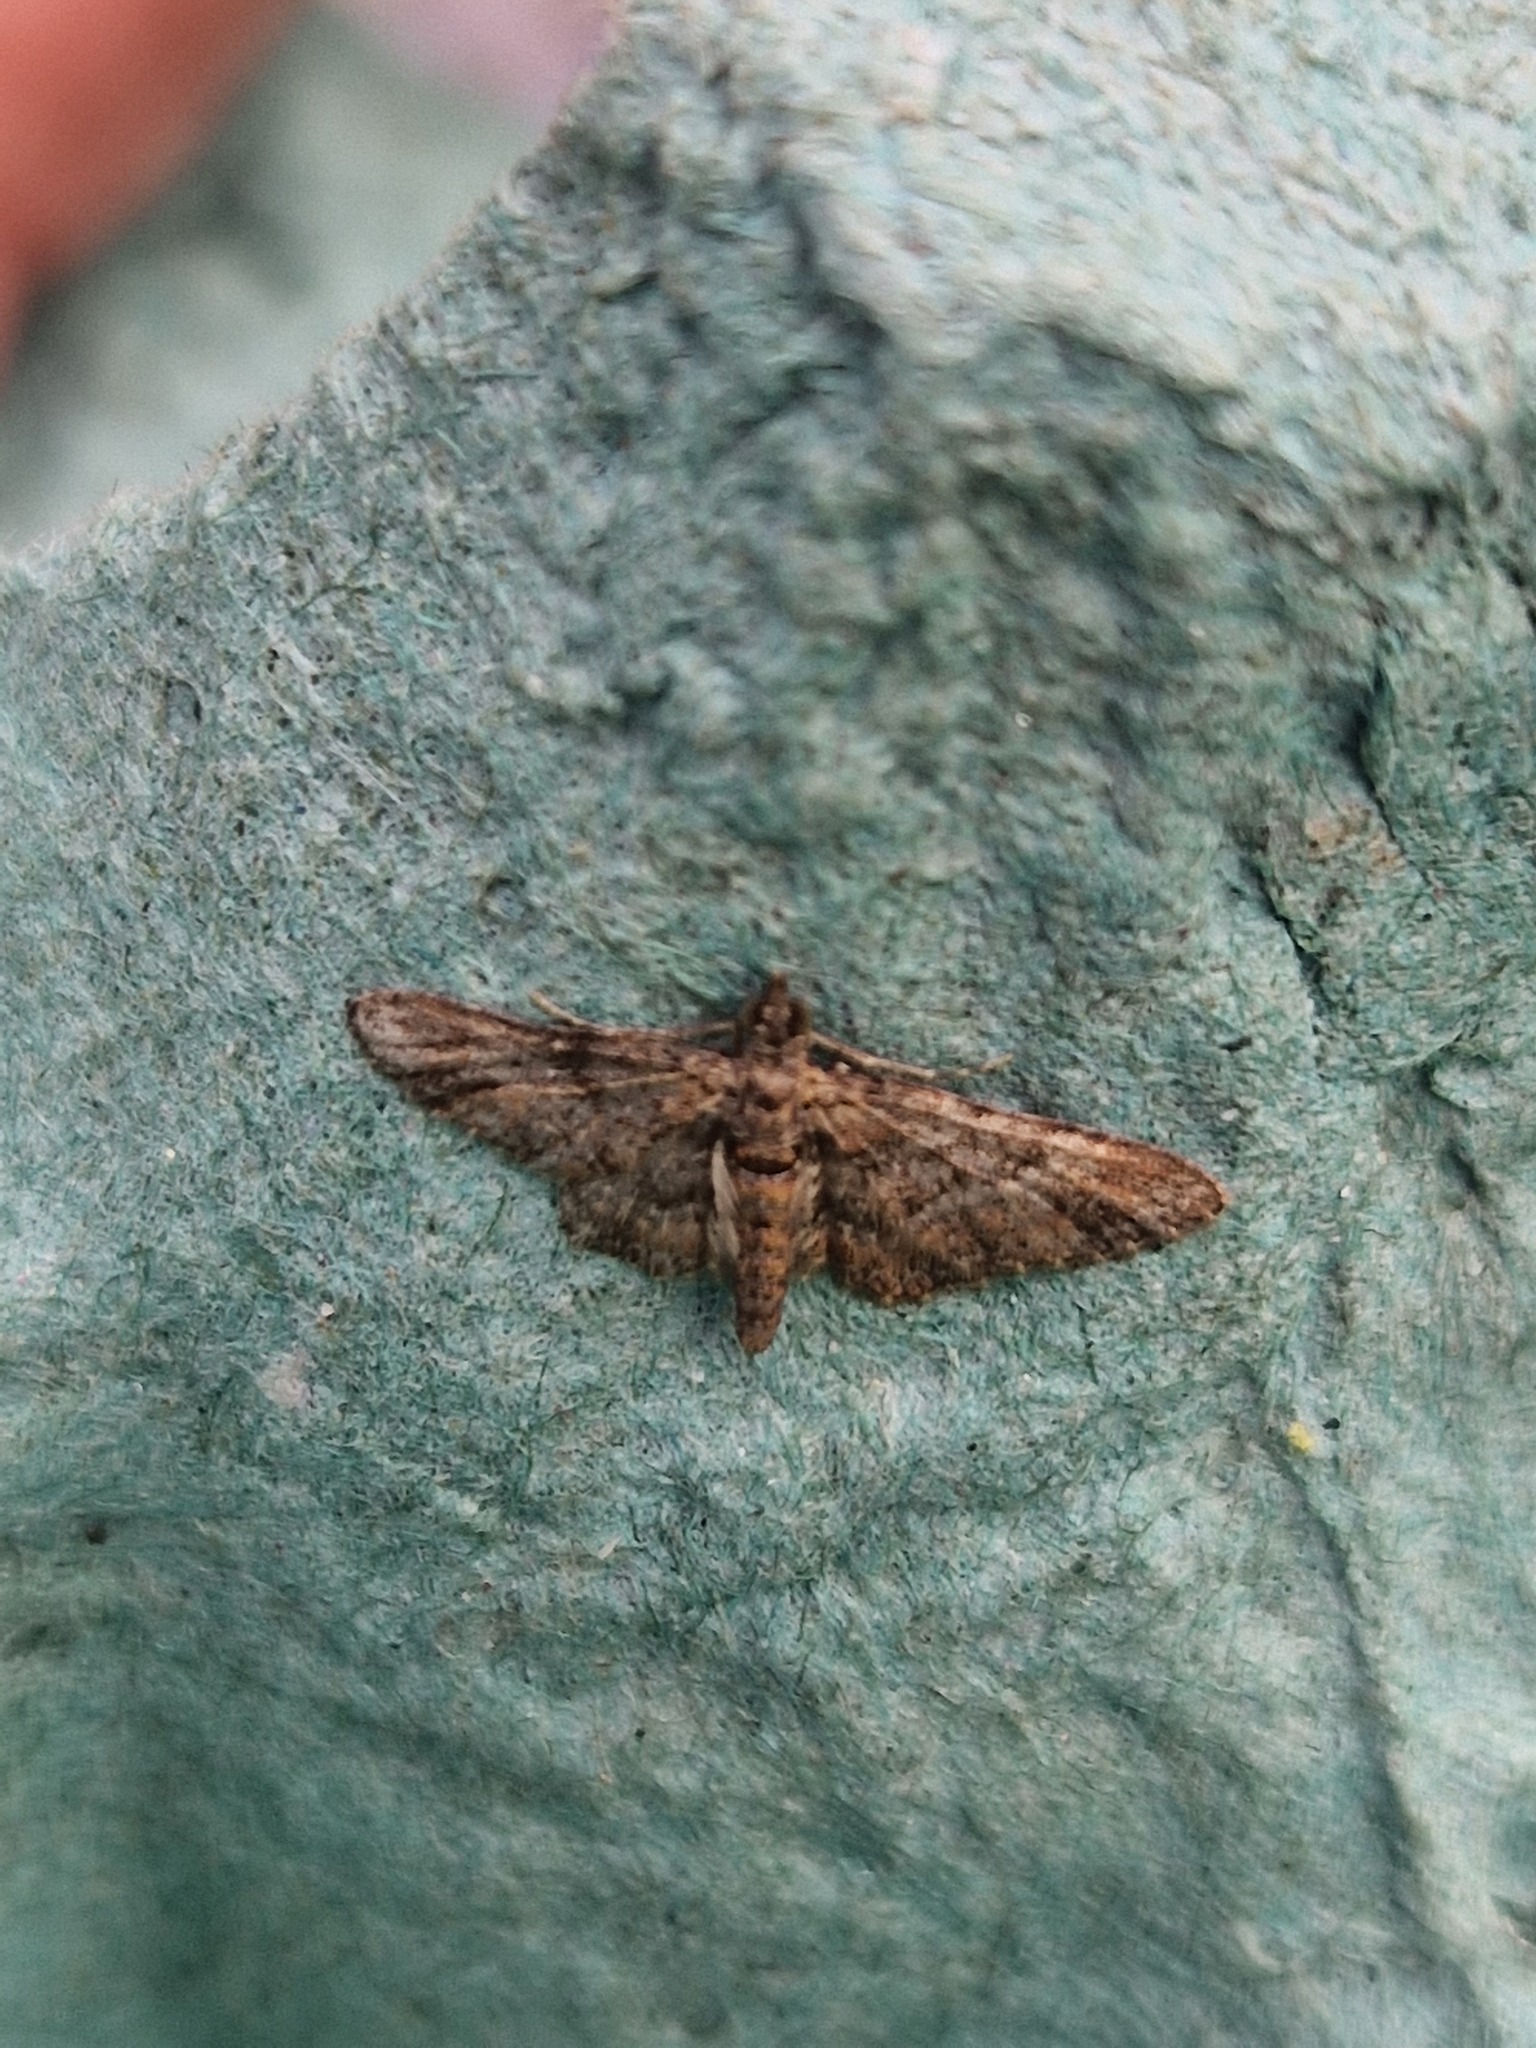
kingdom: Animalia
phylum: Arthropoda
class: Insecta
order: Lepidoptera
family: Geometridae
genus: Gymnoscelis
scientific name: Gymnoscelis rufifasciata
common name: Double-striped pug
